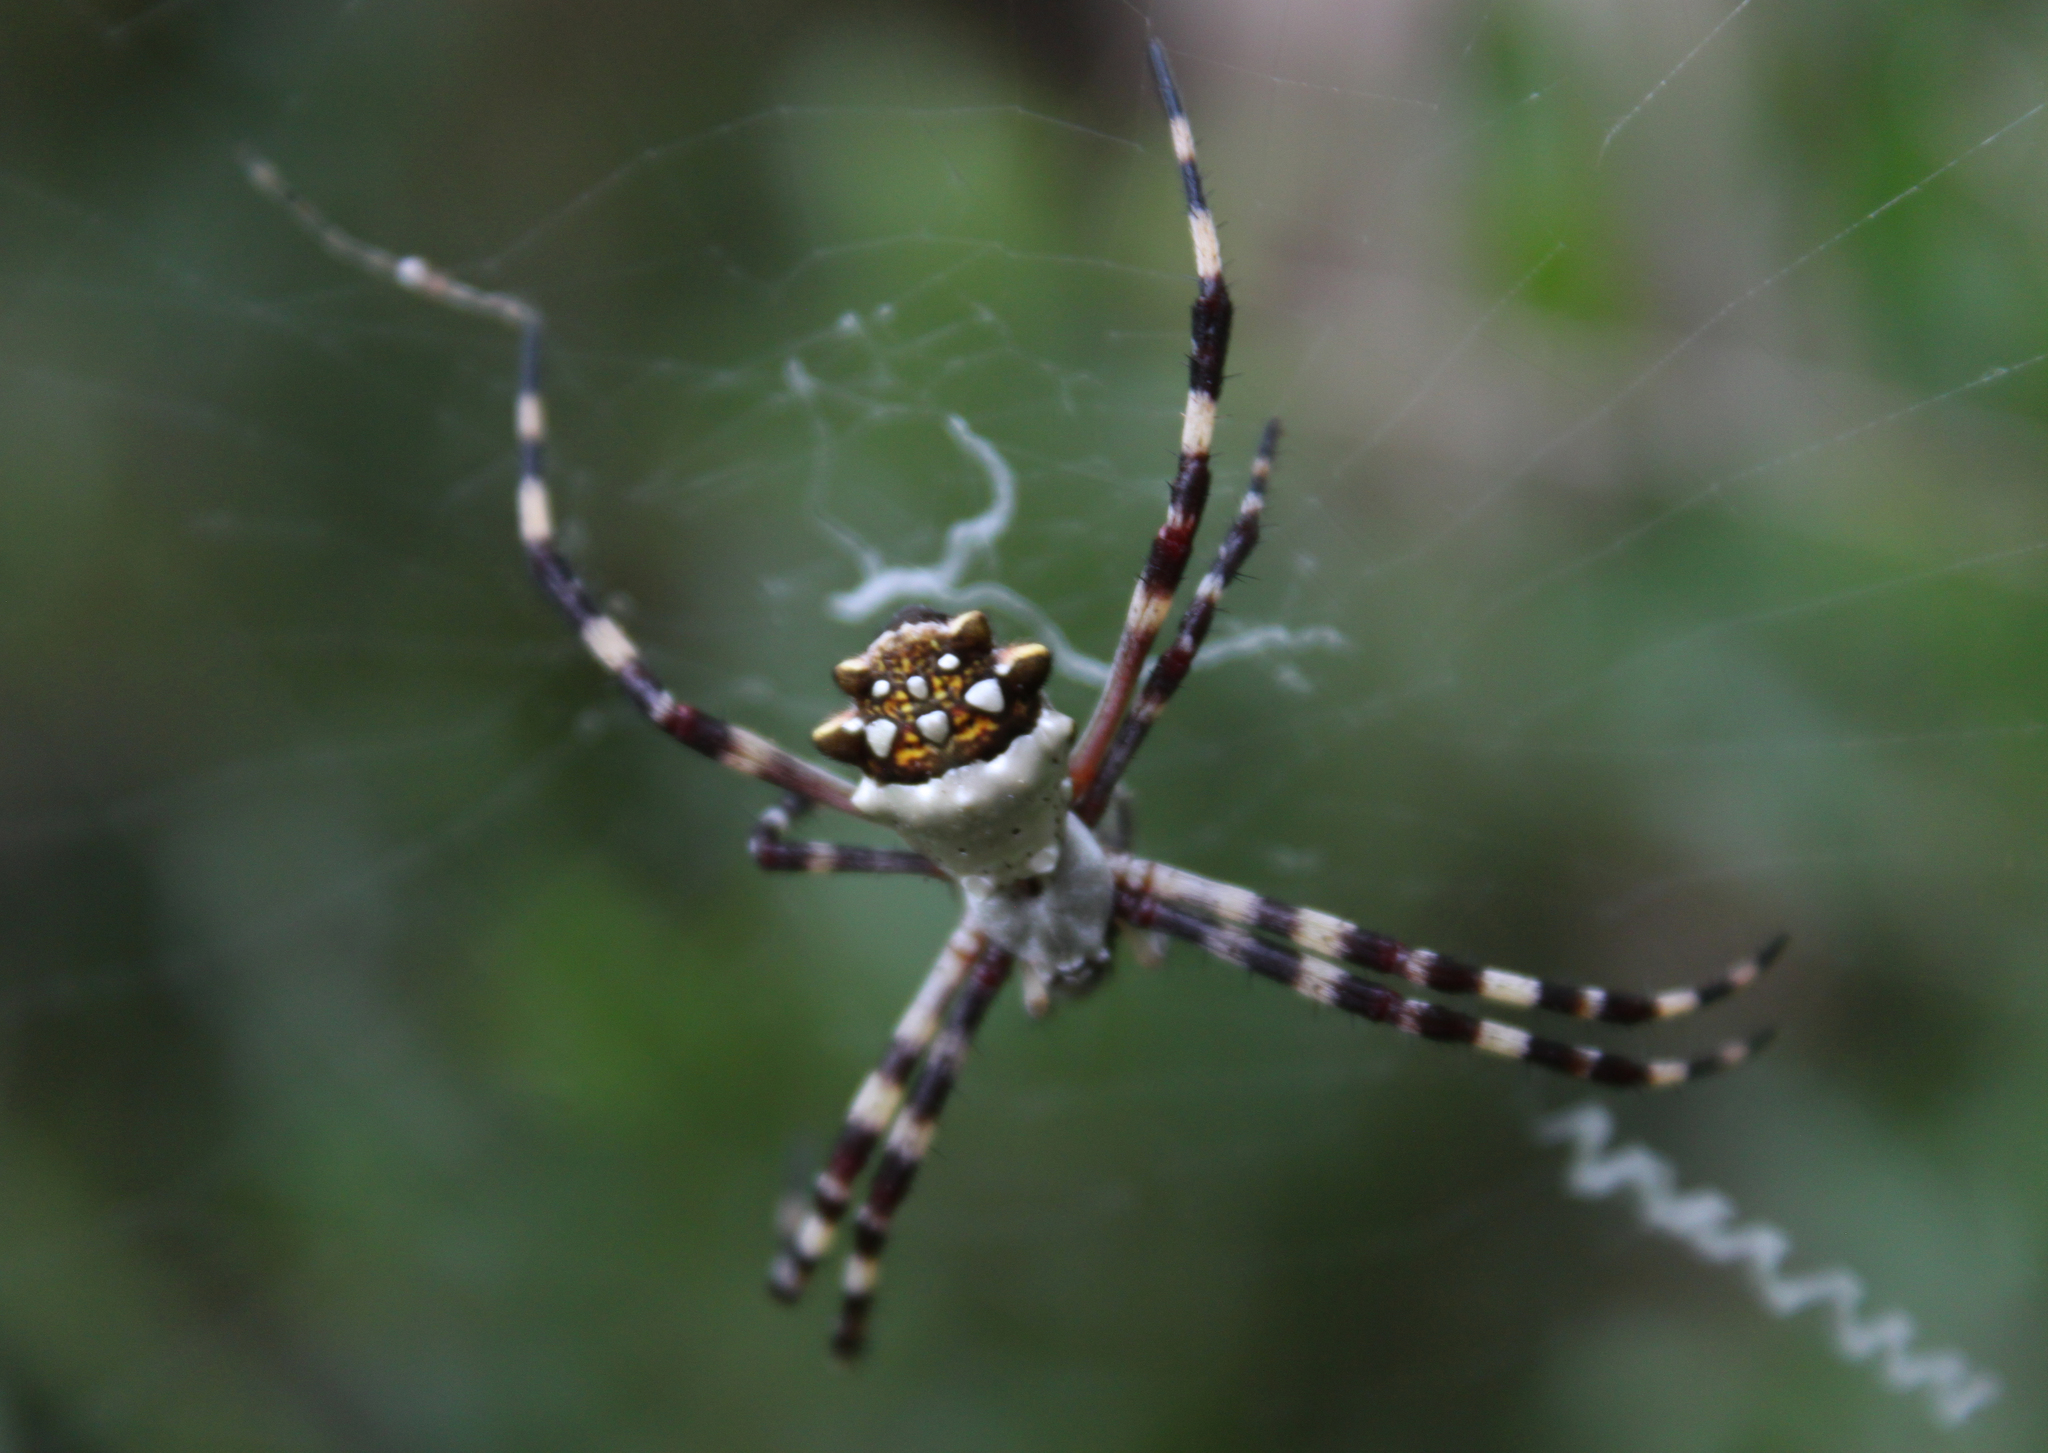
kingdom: Animalia
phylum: Arthropoda
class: Arachnida
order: Araneae
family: Araneidae
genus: Argiope
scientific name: Argiope argentata
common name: Orb weavers
